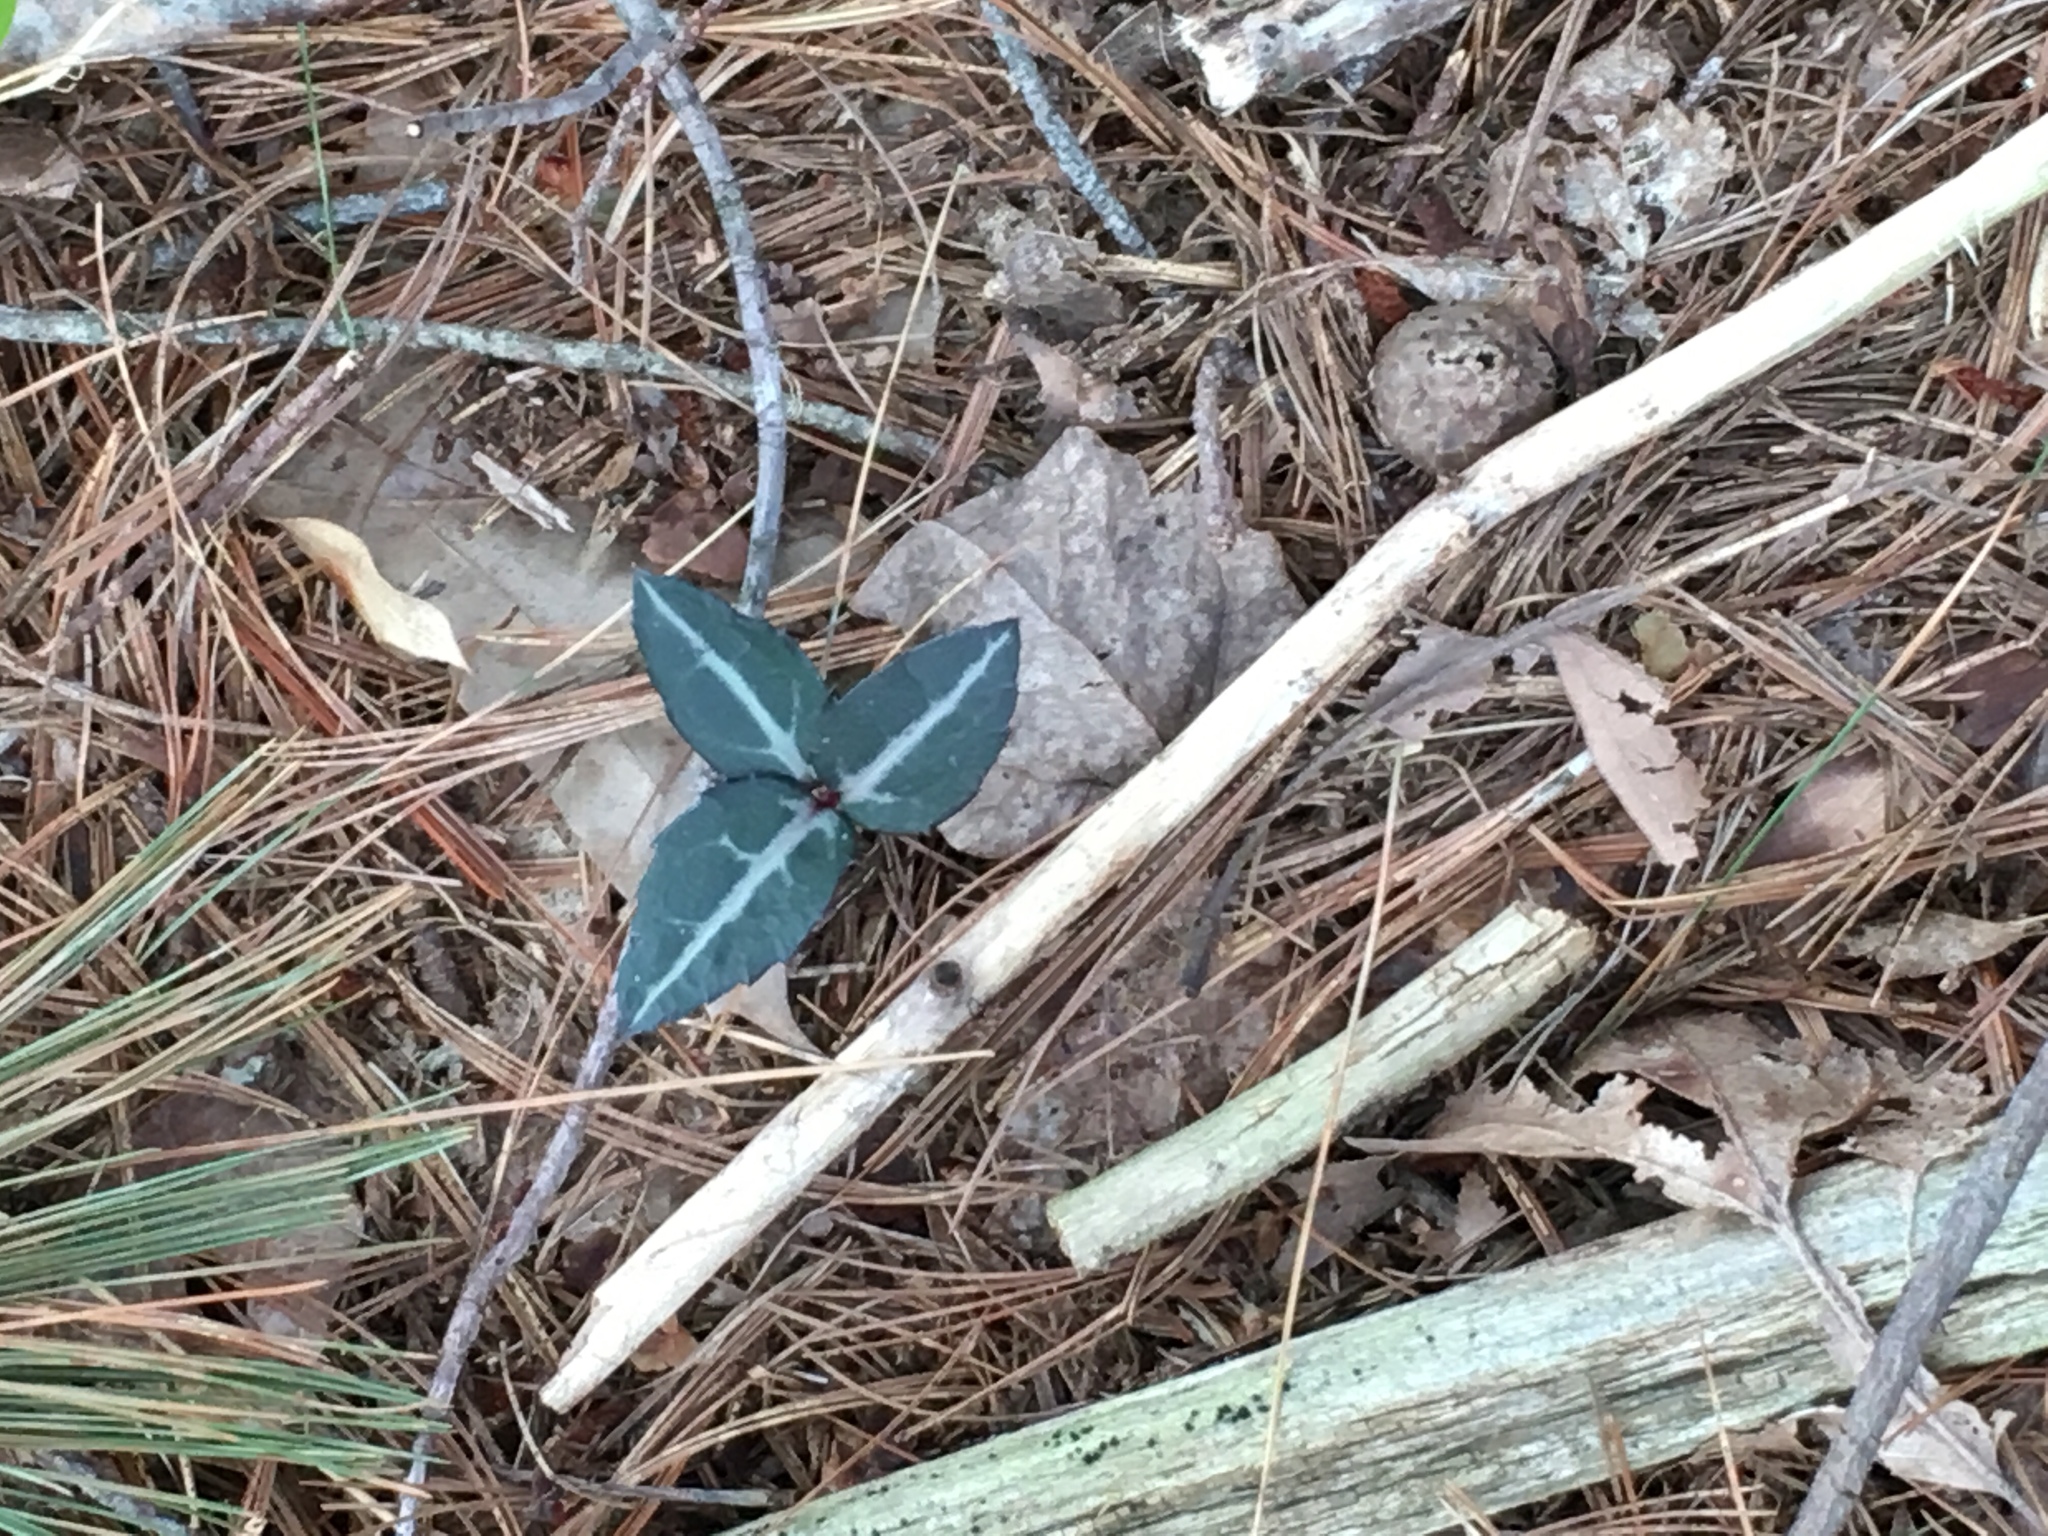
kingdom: Plantae
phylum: Tracheophyta
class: Magnoliopsida
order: Ericales
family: Ericaceae
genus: Chimaphila
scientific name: Chimaphila maculata
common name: Spotted pipsissewa
